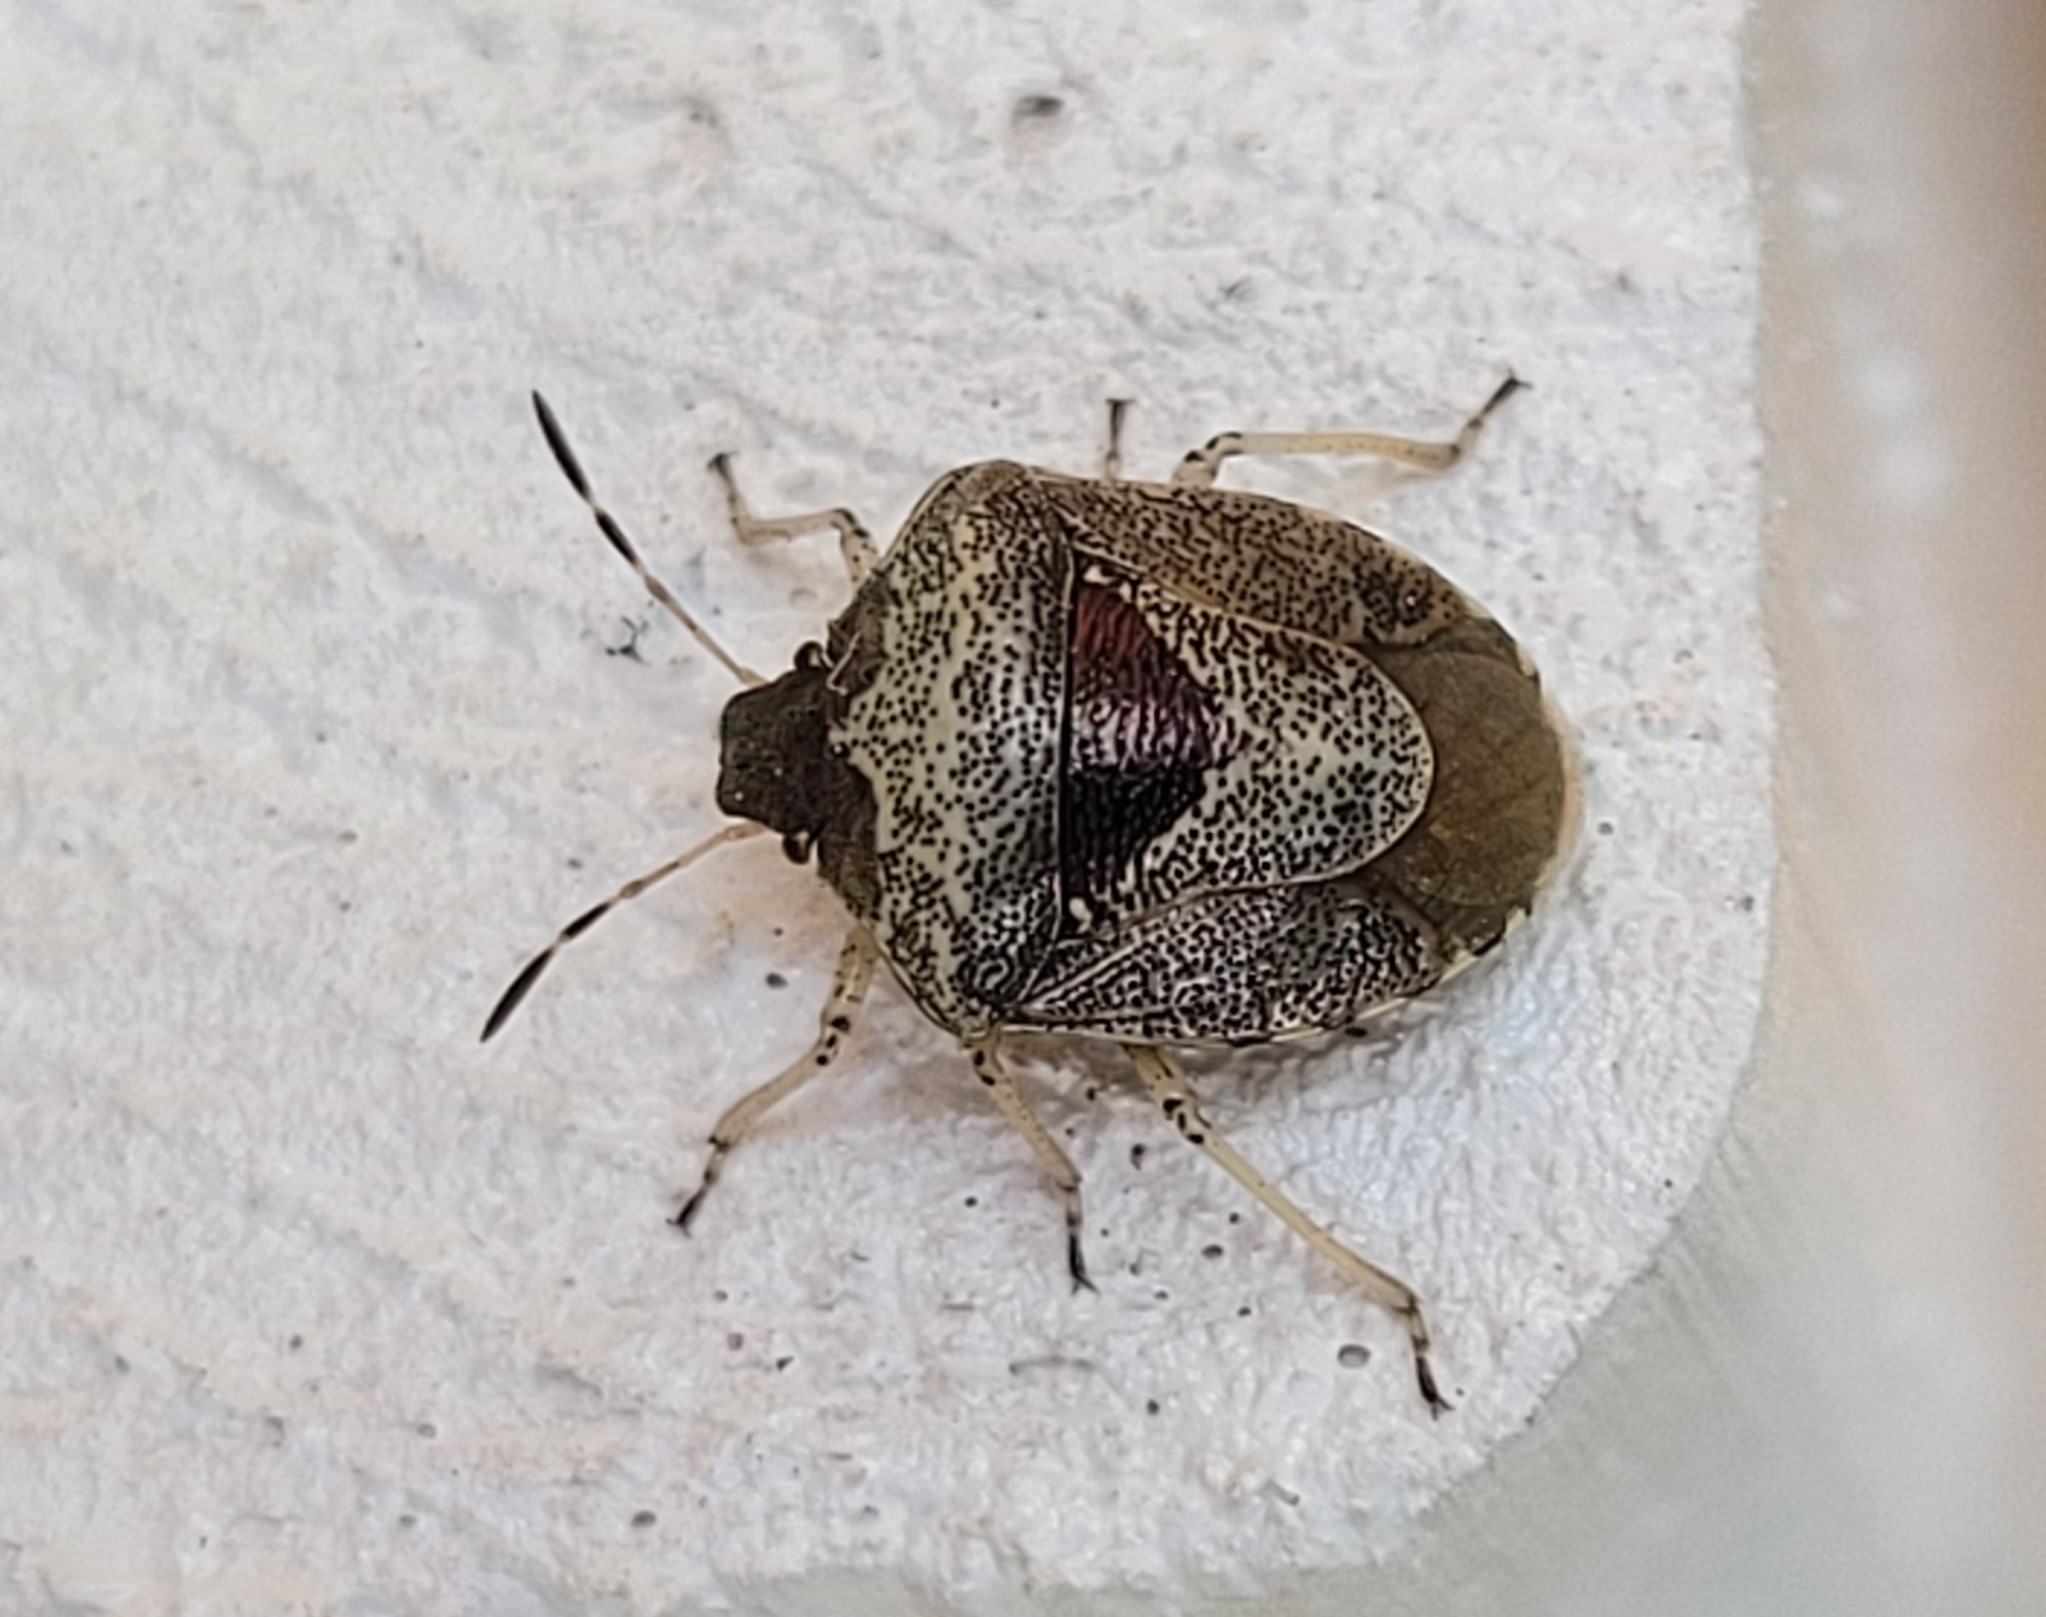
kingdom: Animalia
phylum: Arthropoda
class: Insecta
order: Hemiptera
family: Pentatomidae
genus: Eysarcoris
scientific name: Eysarcoris venustissimus
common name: Woundwort shieldbug
